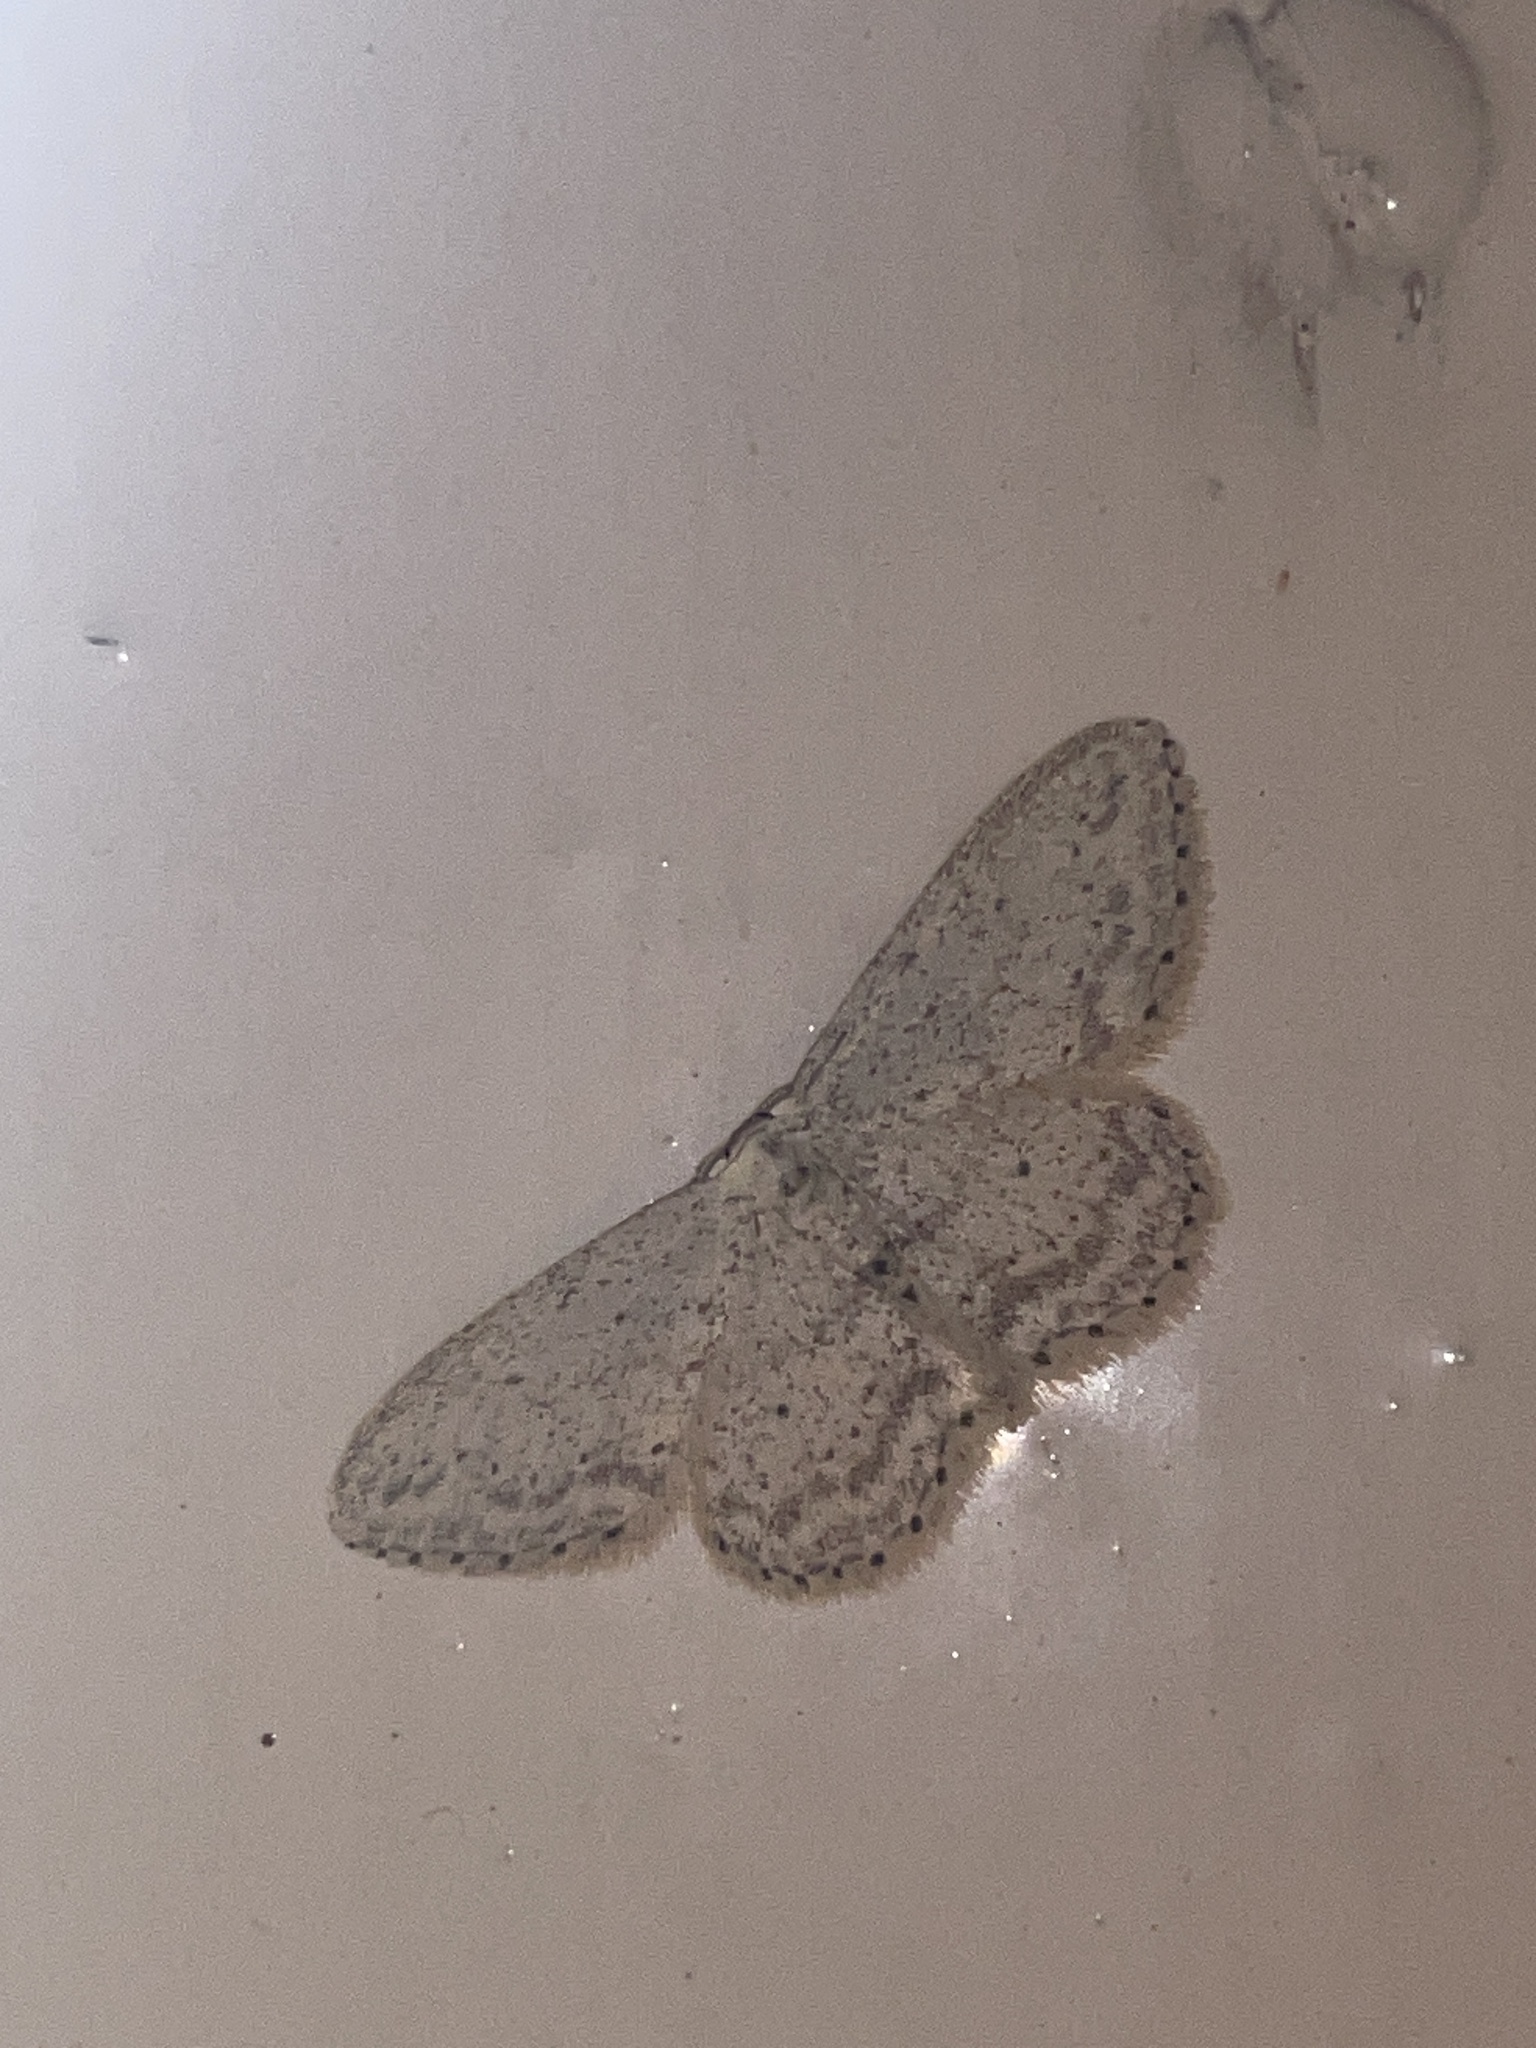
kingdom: Animalia
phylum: Arthropoda
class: Insecta
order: Lepidoptera
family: Geometridae
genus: Idaea
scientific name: Idaea seriata
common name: Small dusty wave
